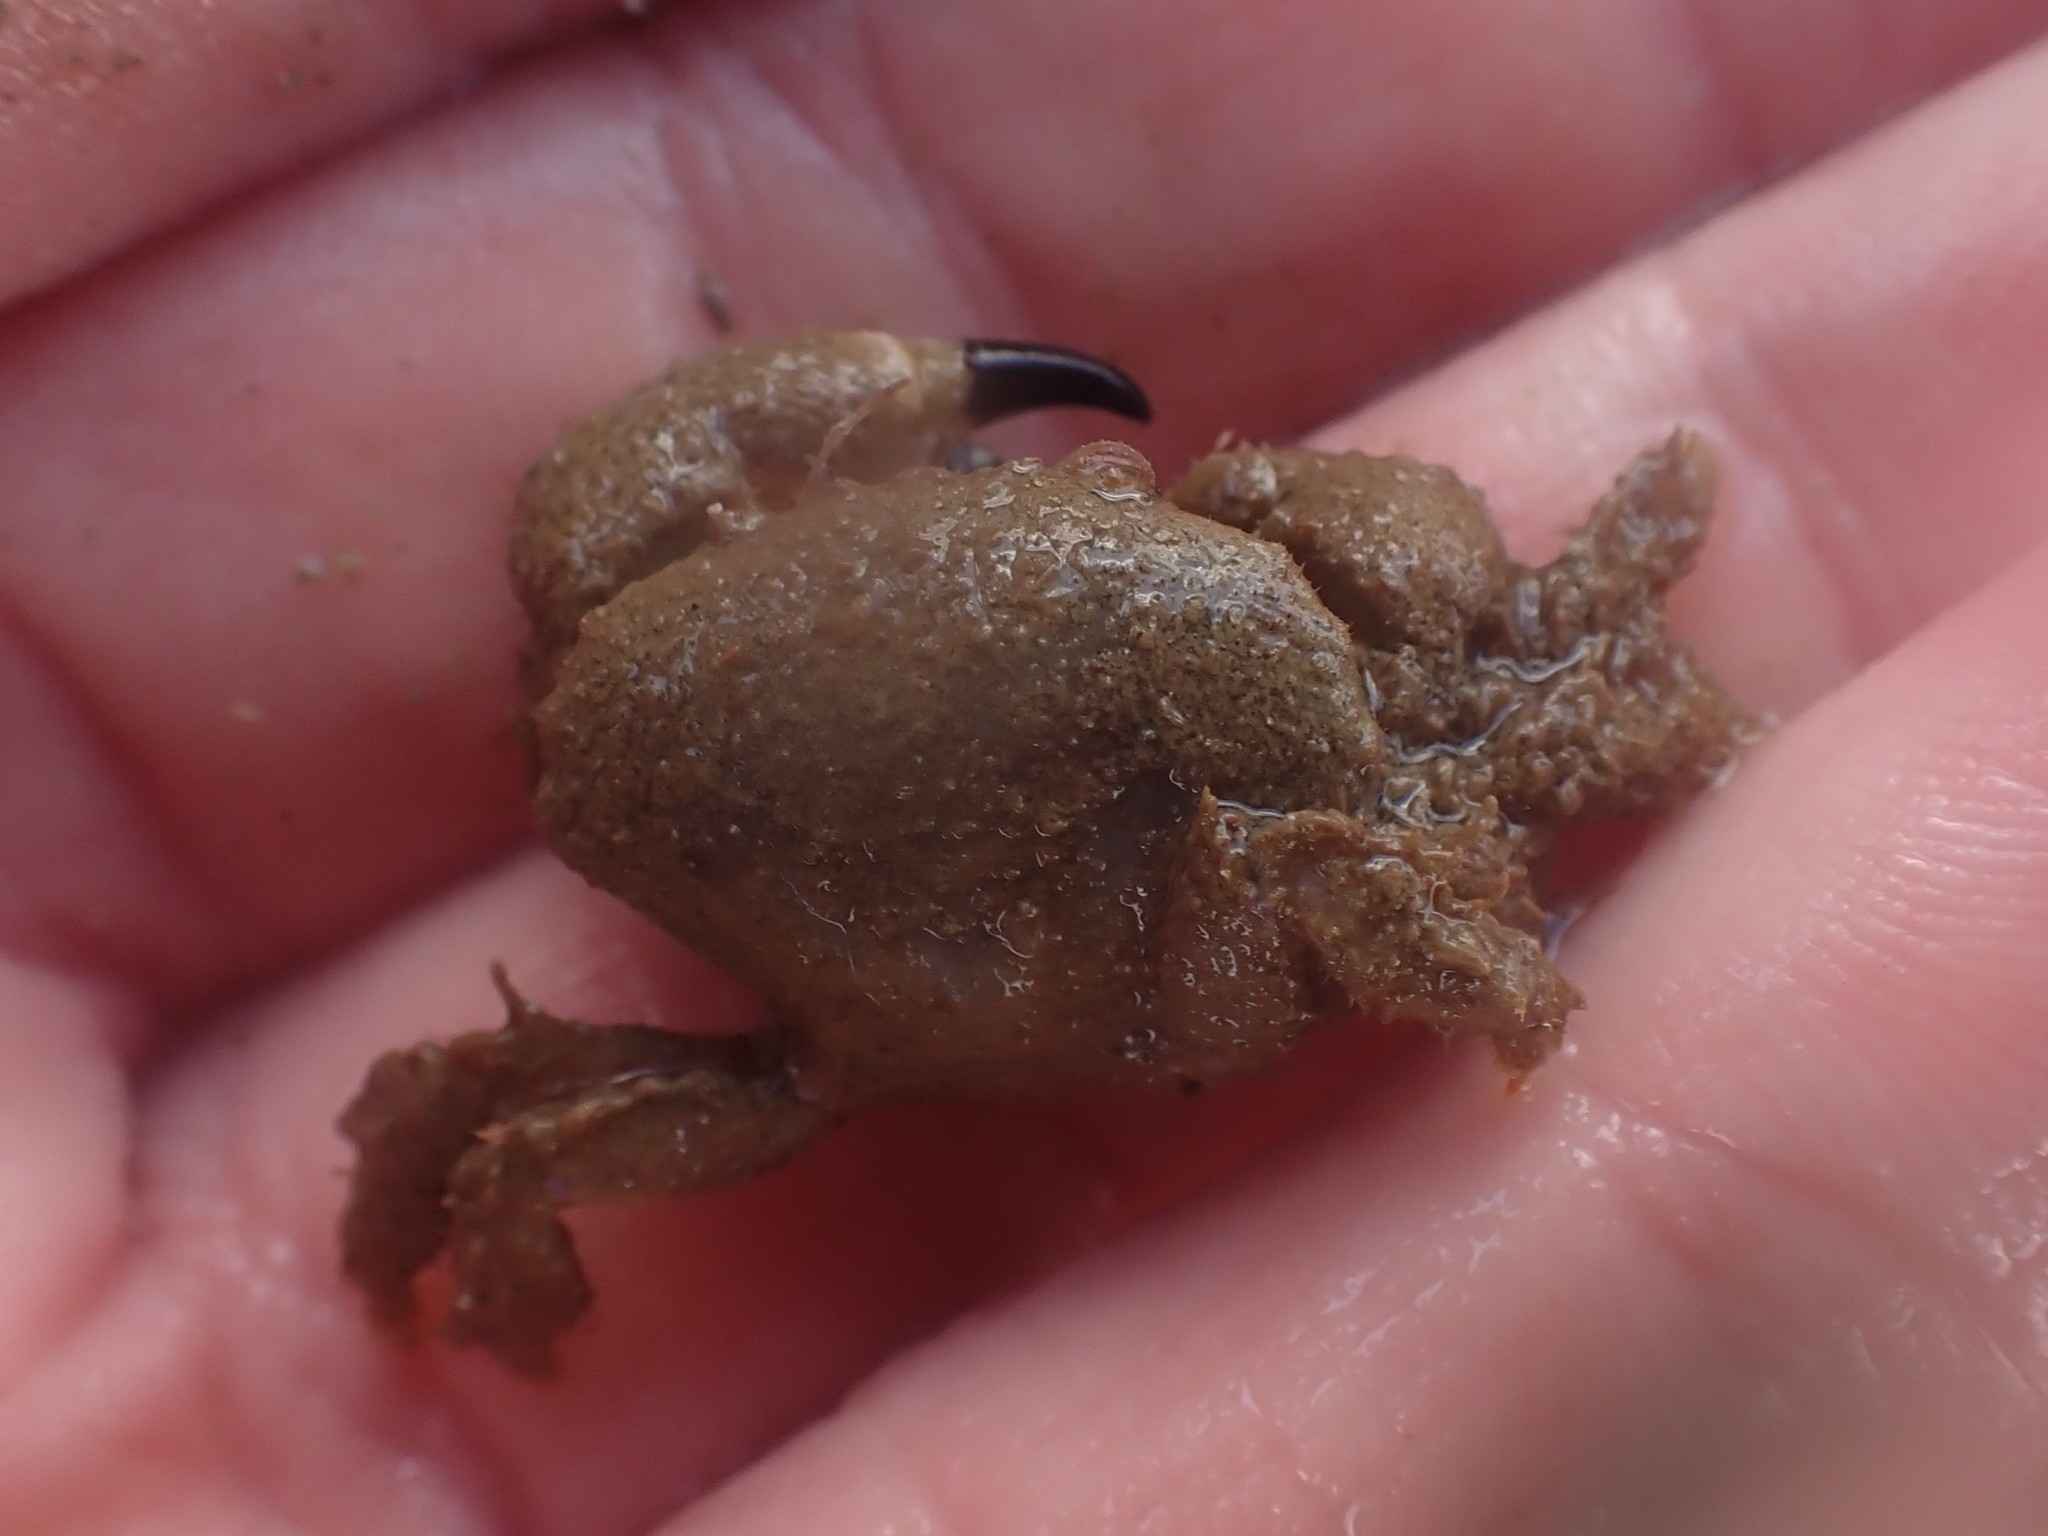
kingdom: Animalia
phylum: Arthropoda
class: Malacostraca
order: Decapoda
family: Pilumnidae
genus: Pilumnus
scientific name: Pilumnus lumpinus
